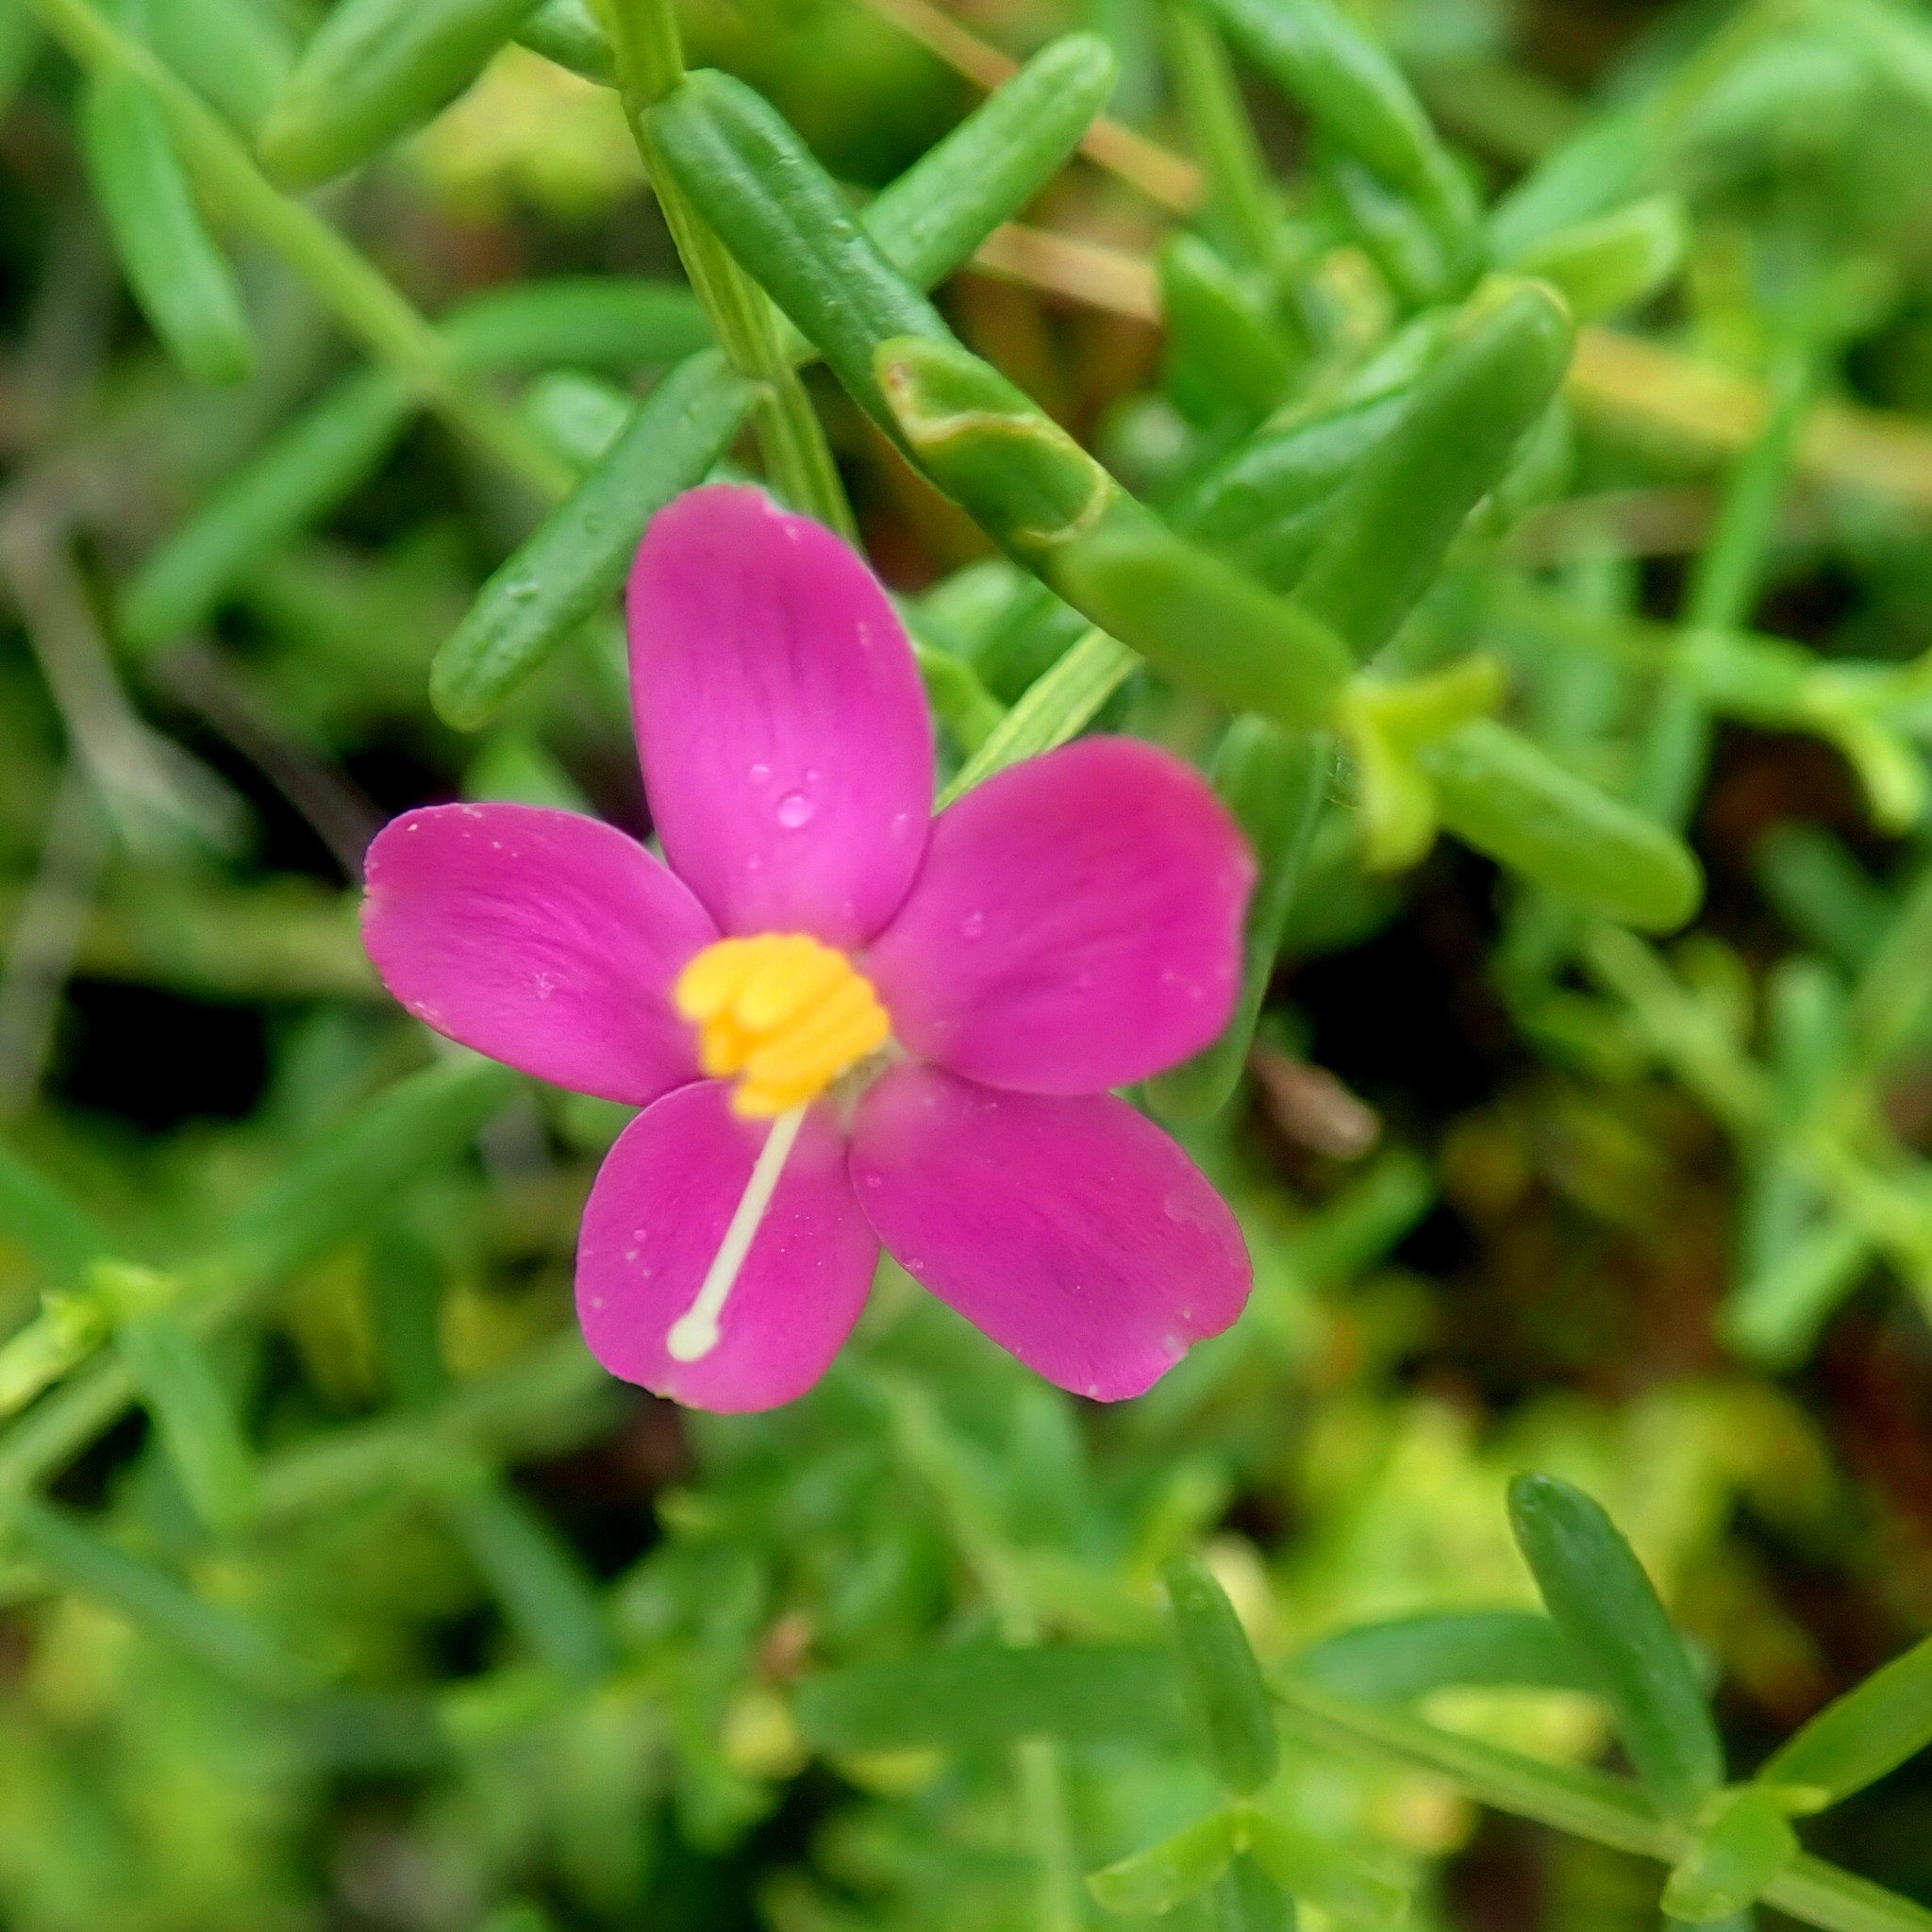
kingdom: Plantae
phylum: Tracheophyta
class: Magnoliopsida
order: Gentianales
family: Gentianaceae
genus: Chironia
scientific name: Chironia baccifera
